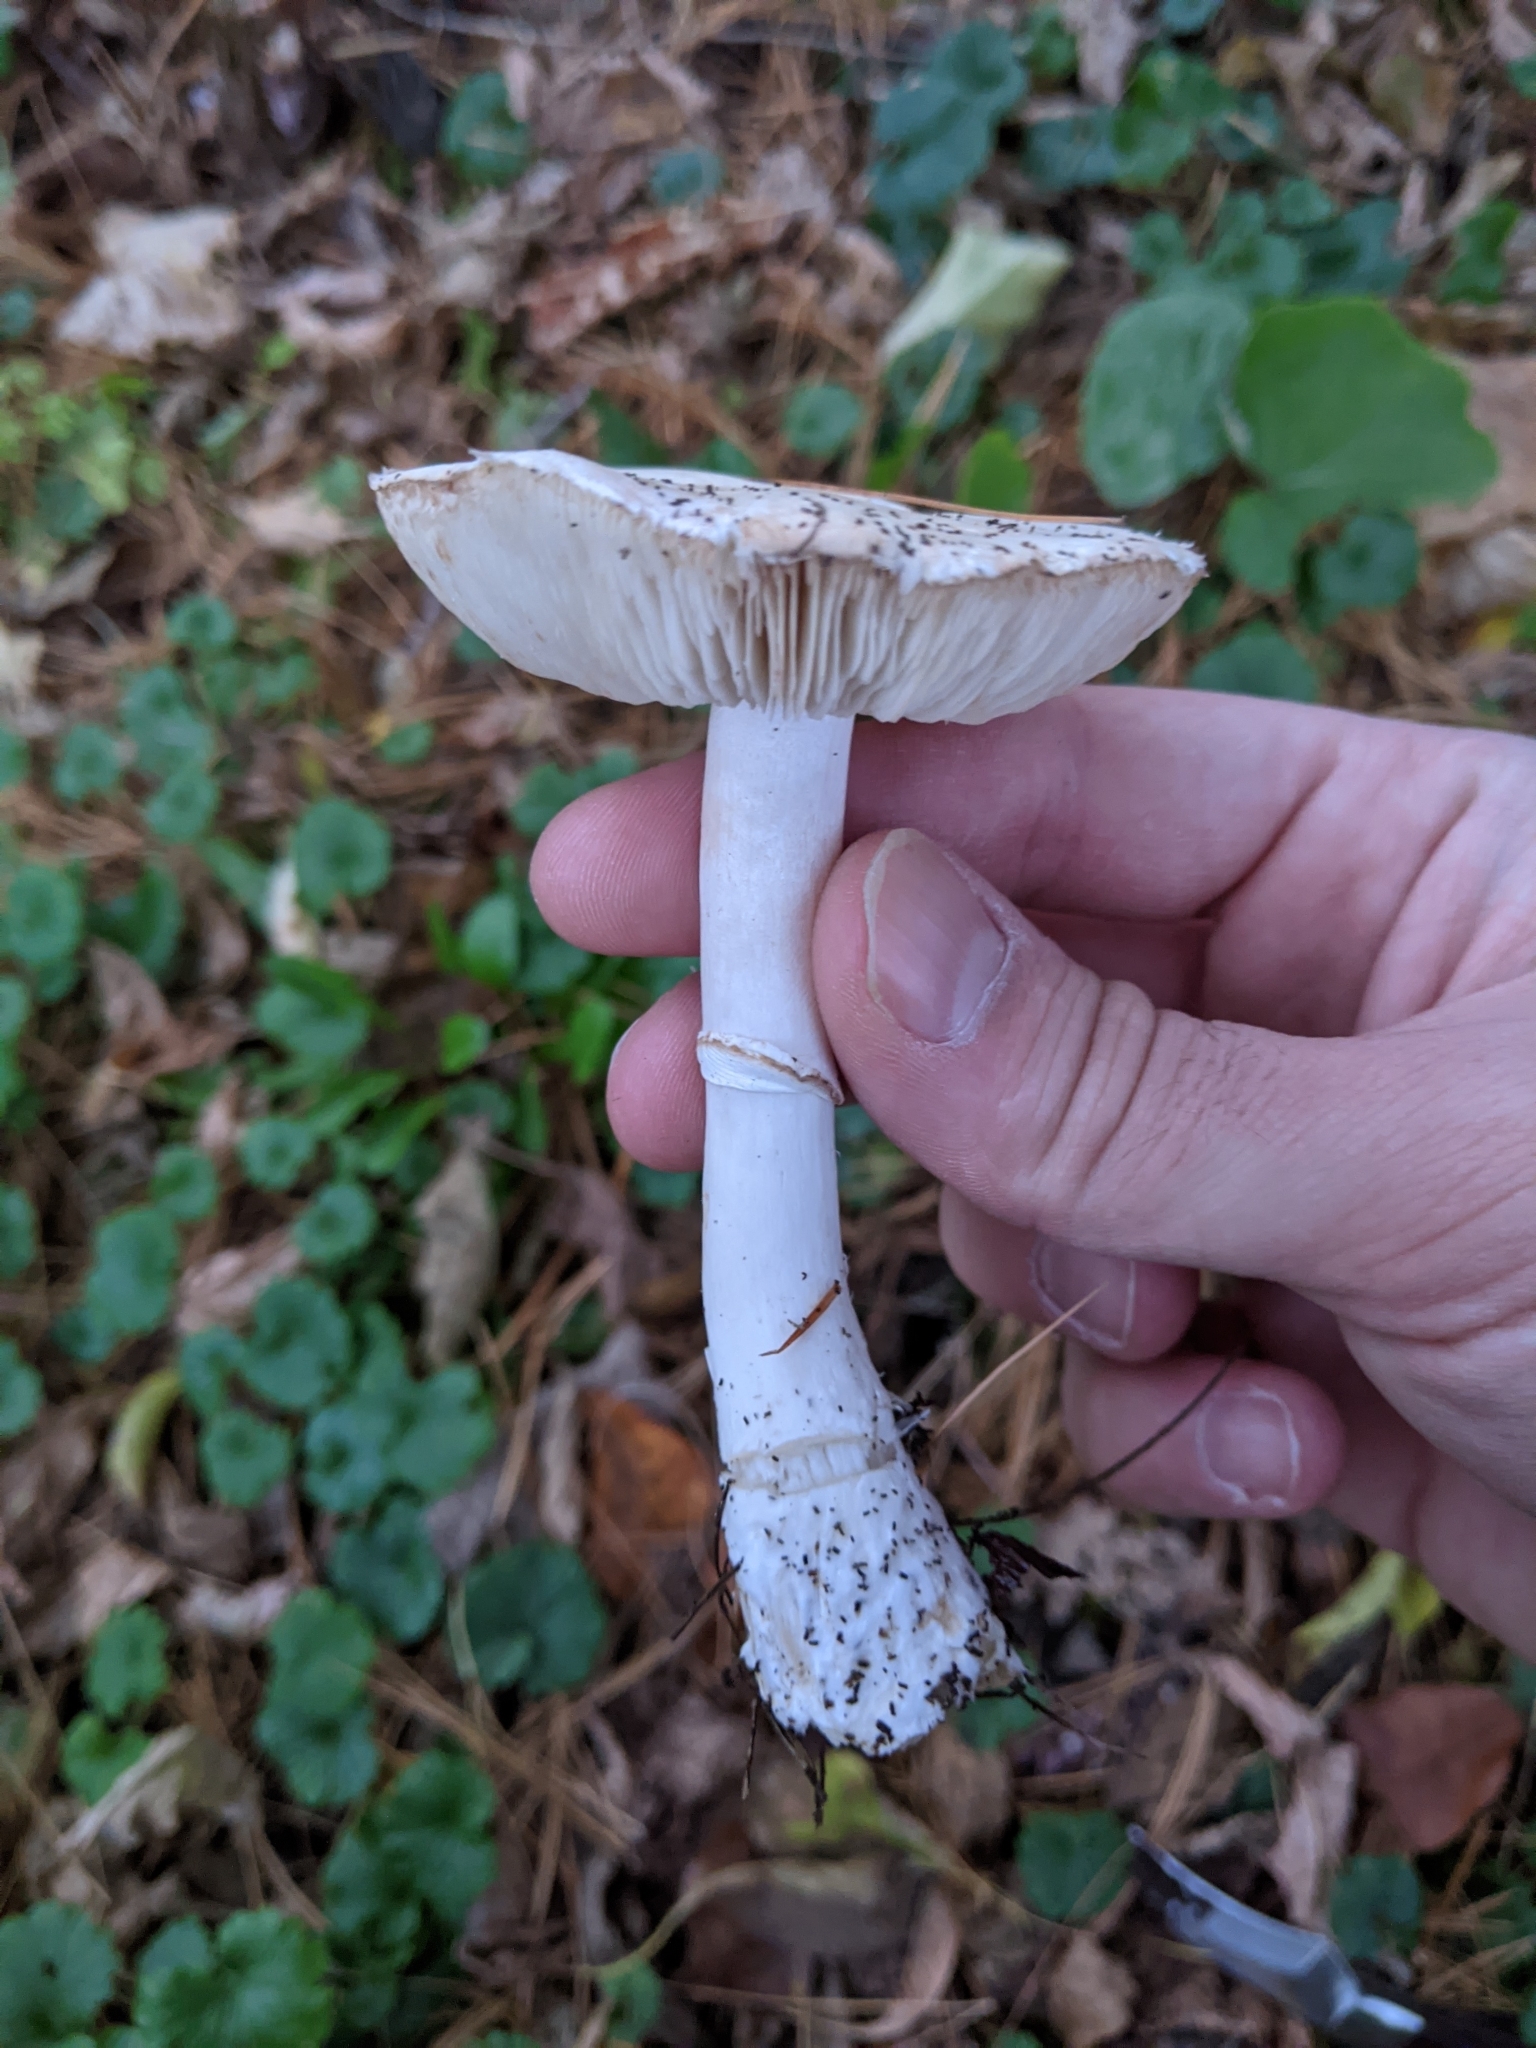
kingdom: Fungi
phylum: Basidiomycota
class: Agaricomycetes
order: Agaricales
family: Agaricaceae
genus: Leucoagaricus
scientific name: Leucoagaricus leucothites
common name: White dapperling
